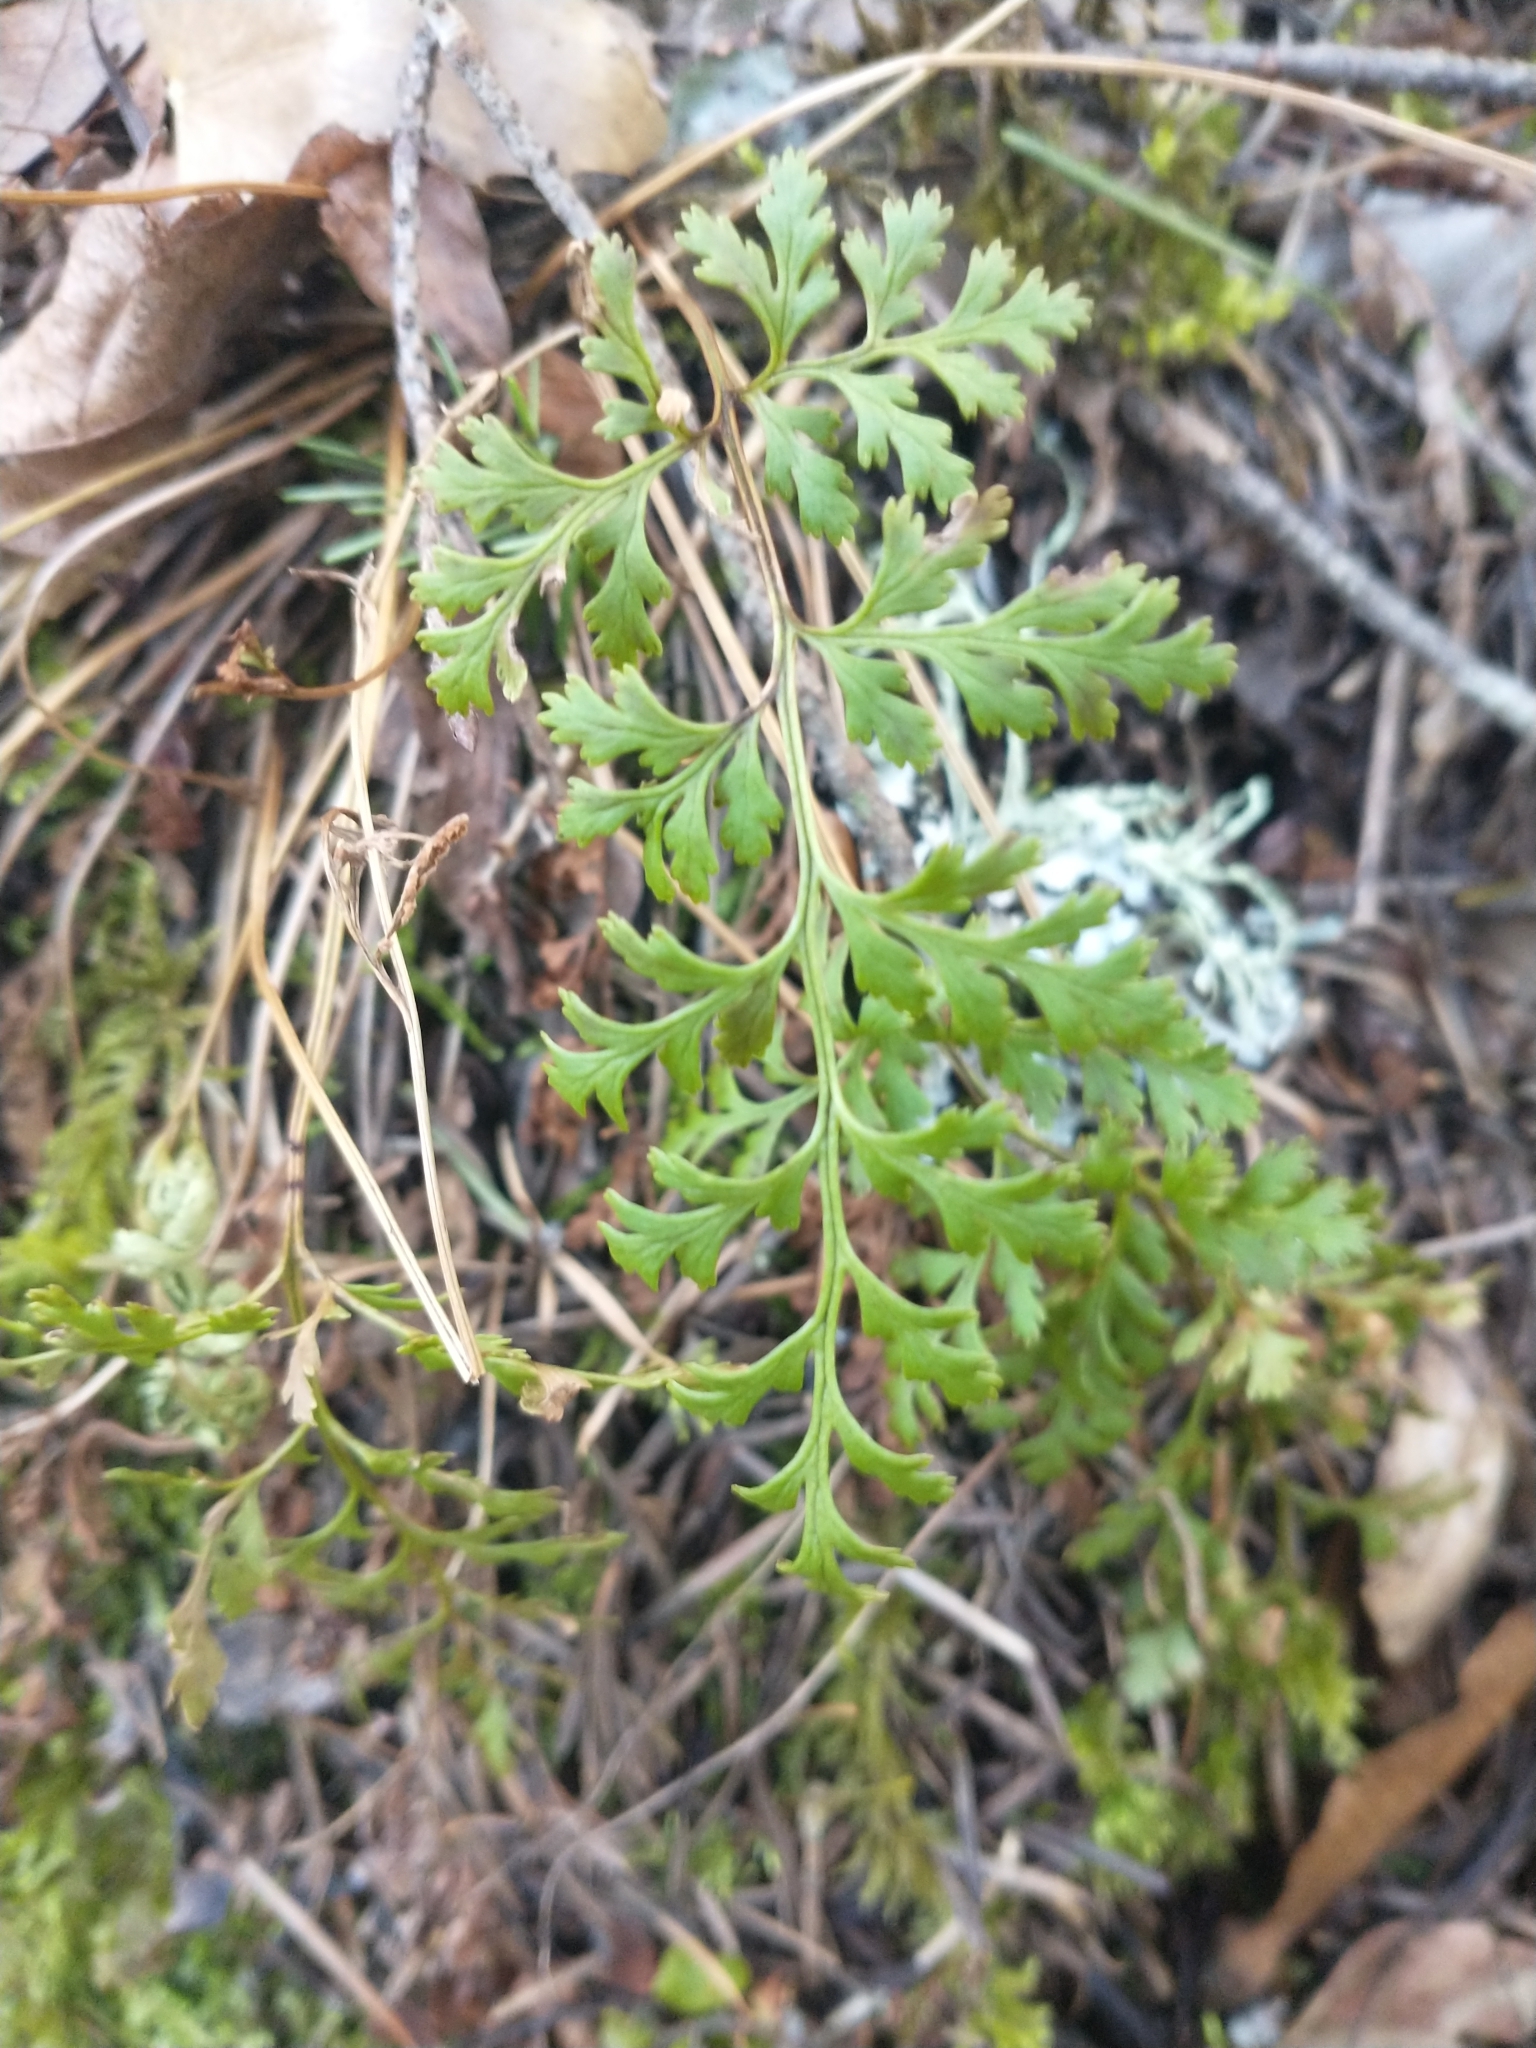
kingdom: Plantae
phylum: Tracheophyta
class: Polypodiopsida
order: Polypodiales
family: Pteridaceae
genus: Cryptogramma
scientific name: Cryptogramma acrostichoides
